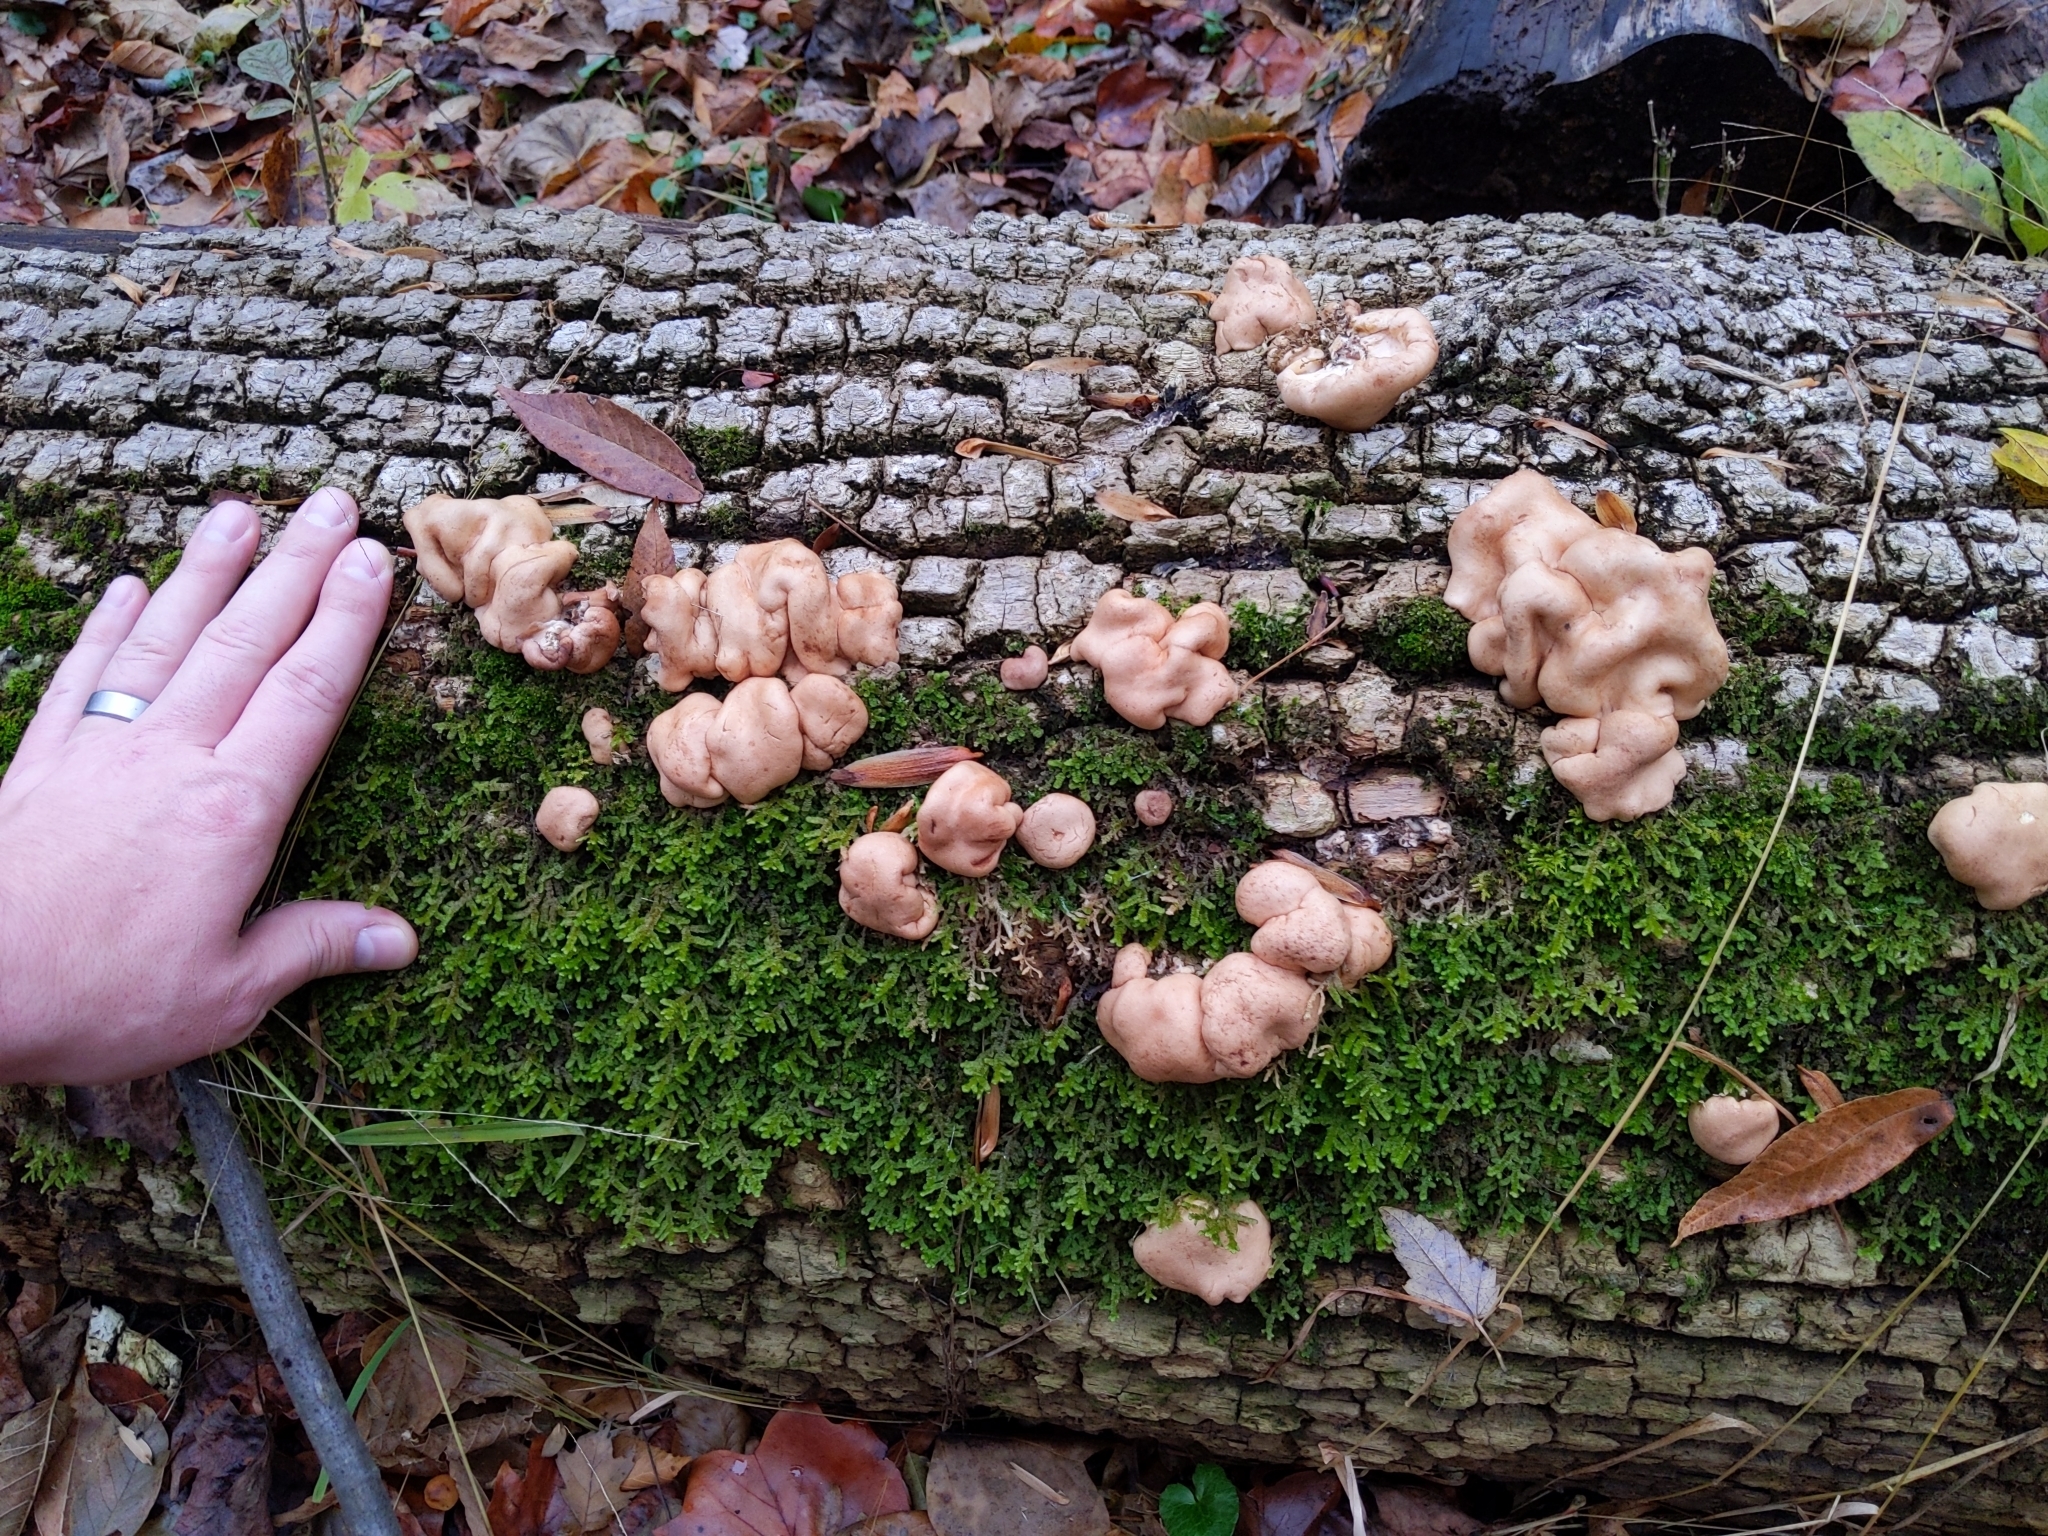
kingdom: Fungi
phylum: Ascomycota
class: Sordariomycetes
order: Hypocreales
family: Hypocreaceae
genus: Trichoderma
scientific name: Trichoderma peltatum
